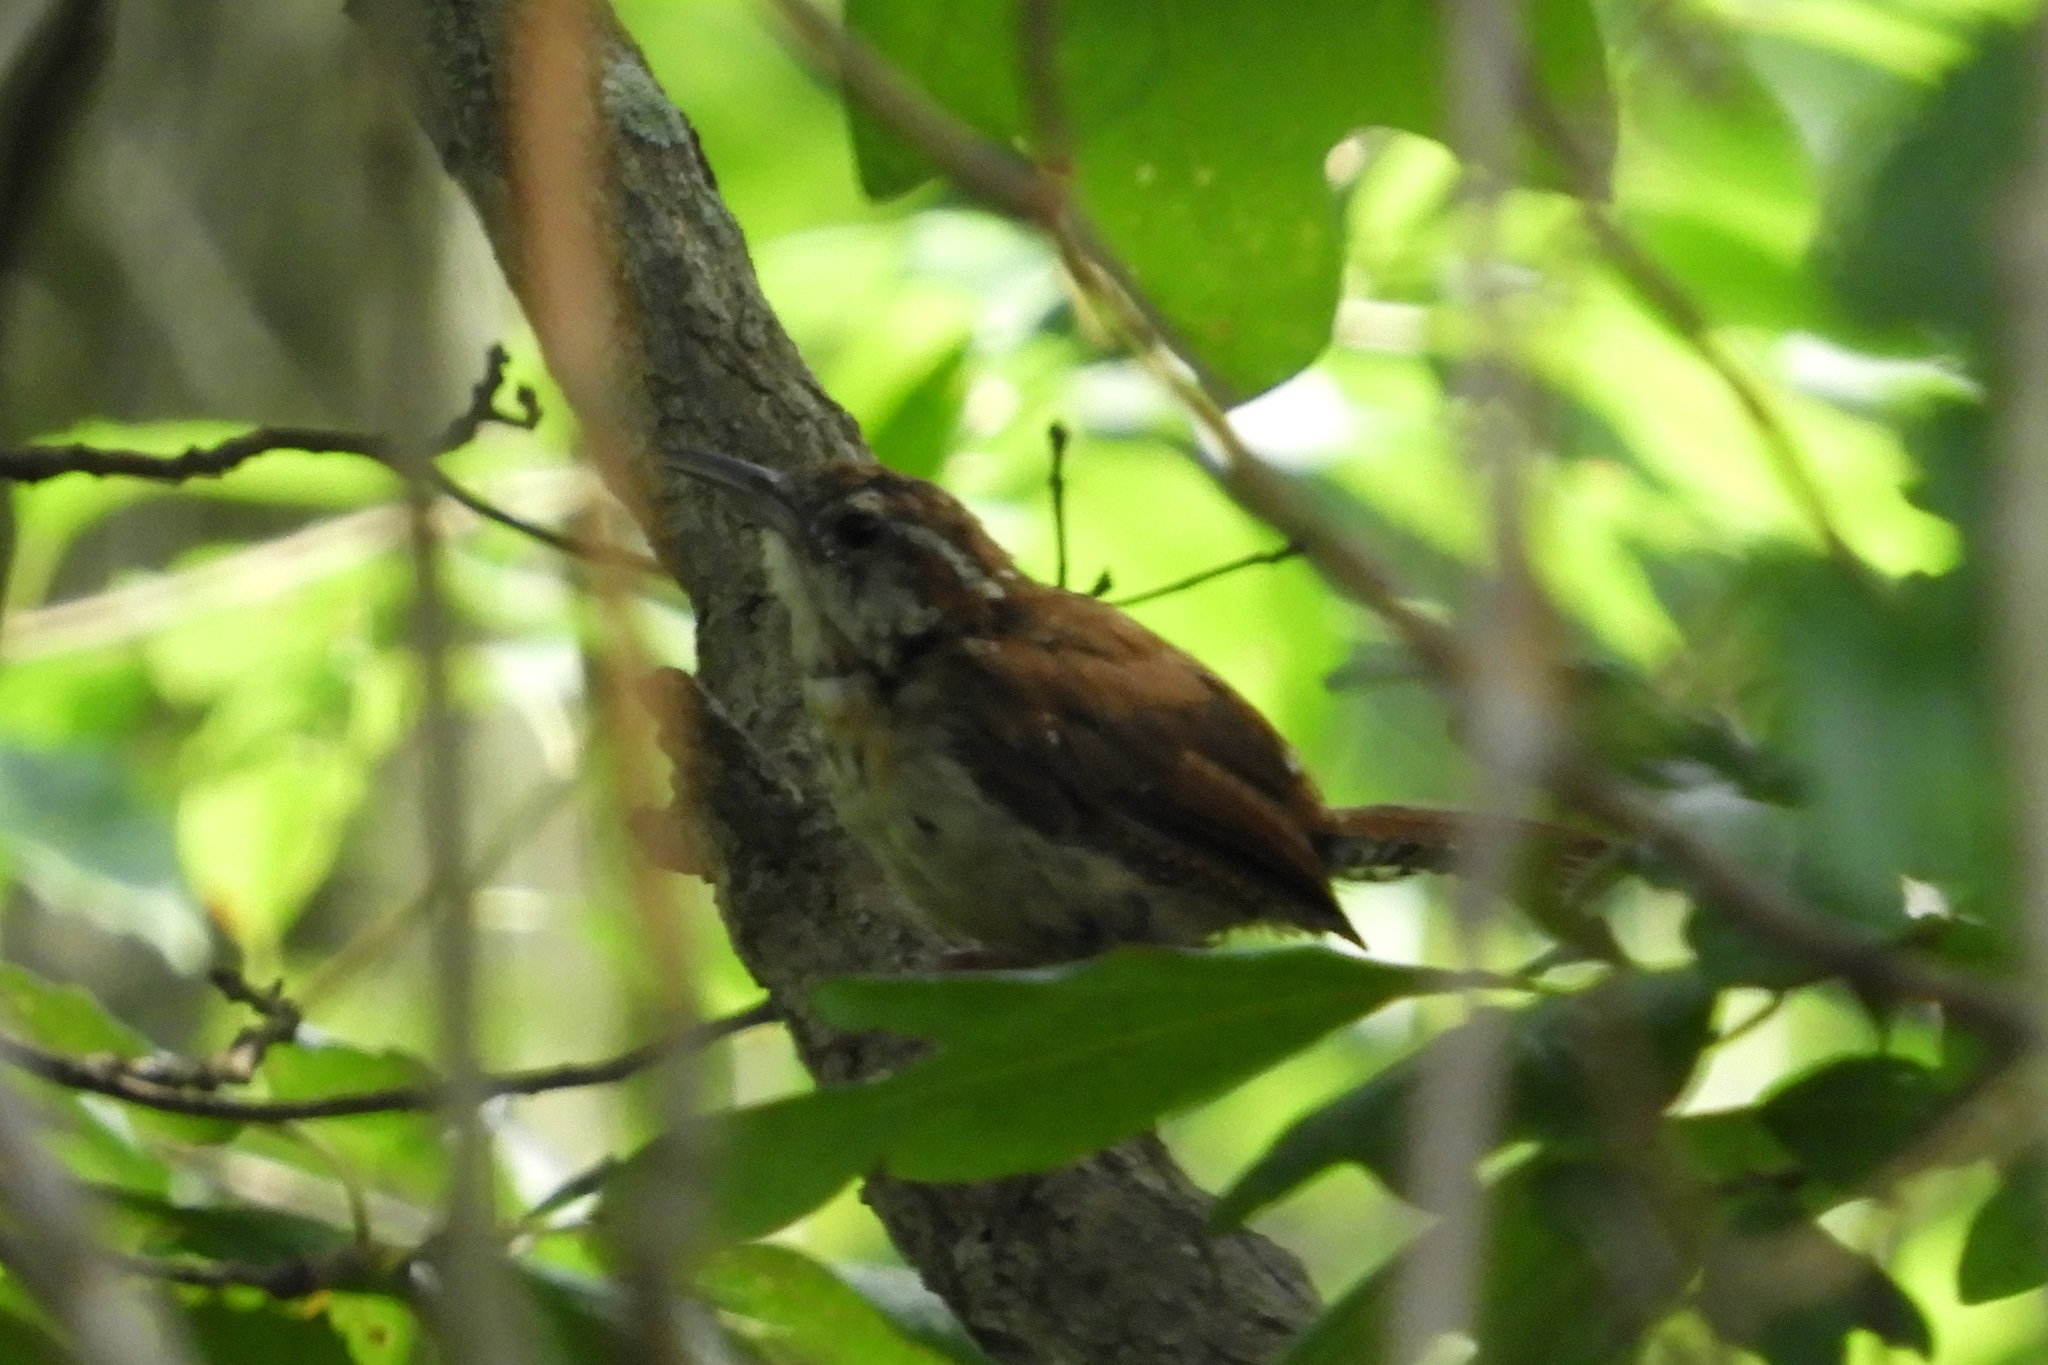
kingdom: Animalia
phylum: Chordata
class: Aves
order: Passeriformes
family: Troglodytidae
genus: Thryothorus
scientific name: Thryothorus ludovicianus
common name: Carolina wren
